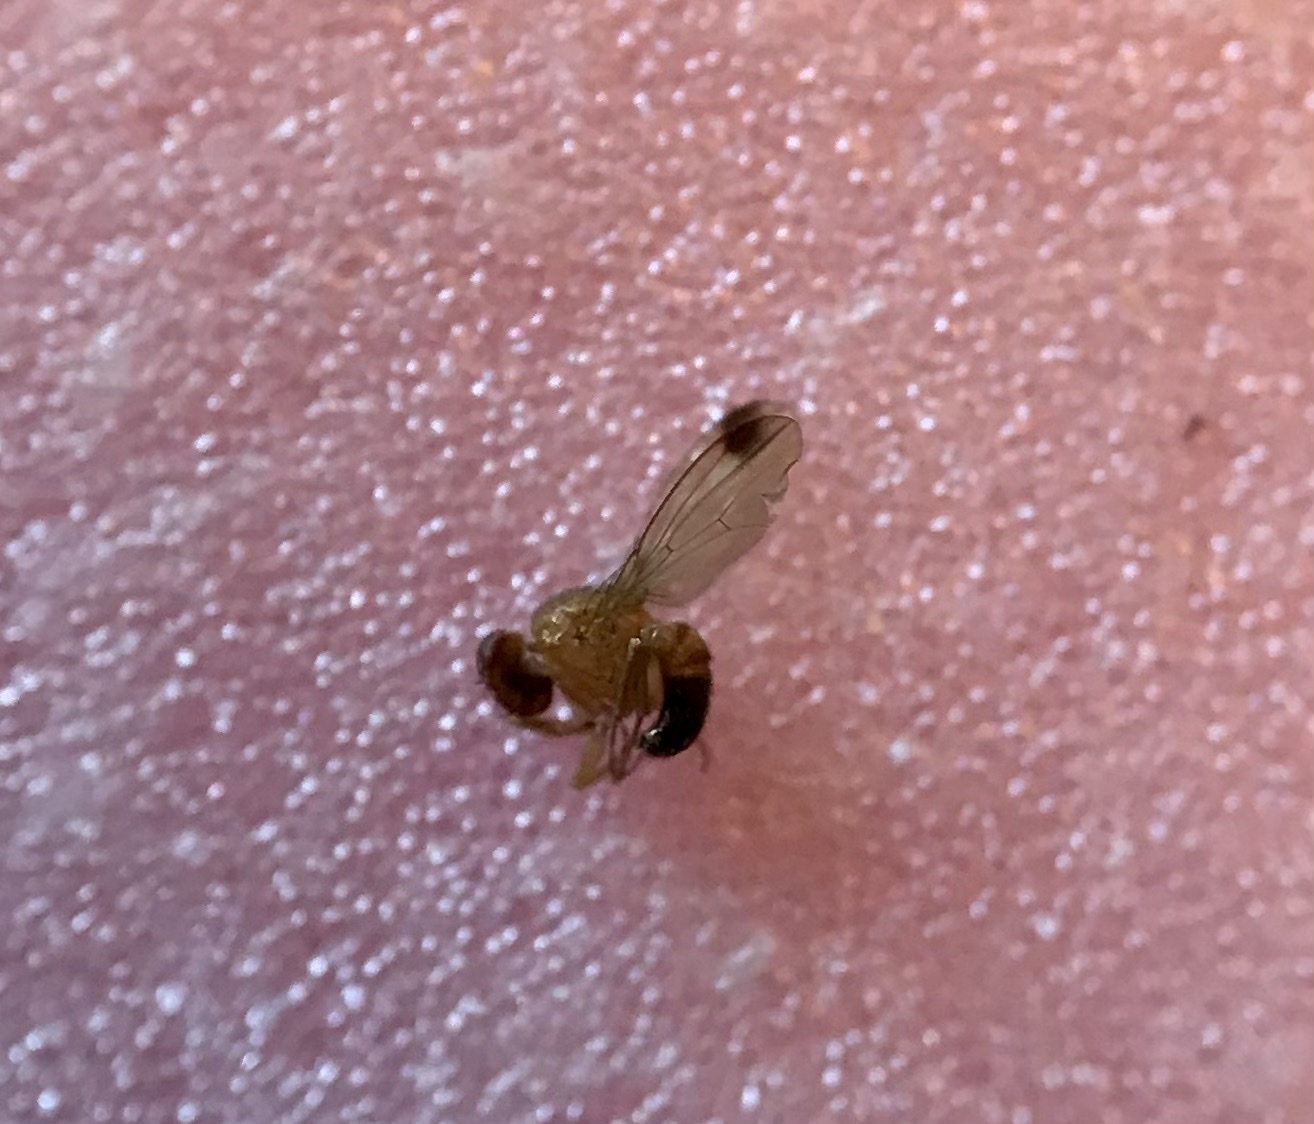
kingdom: Animalia
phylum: Arthropoda
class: Insecta
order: Diptera
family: Drosophilidae
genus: Drosophila
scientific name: Drosophila suzukii
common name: Spotted-wing drosophila
